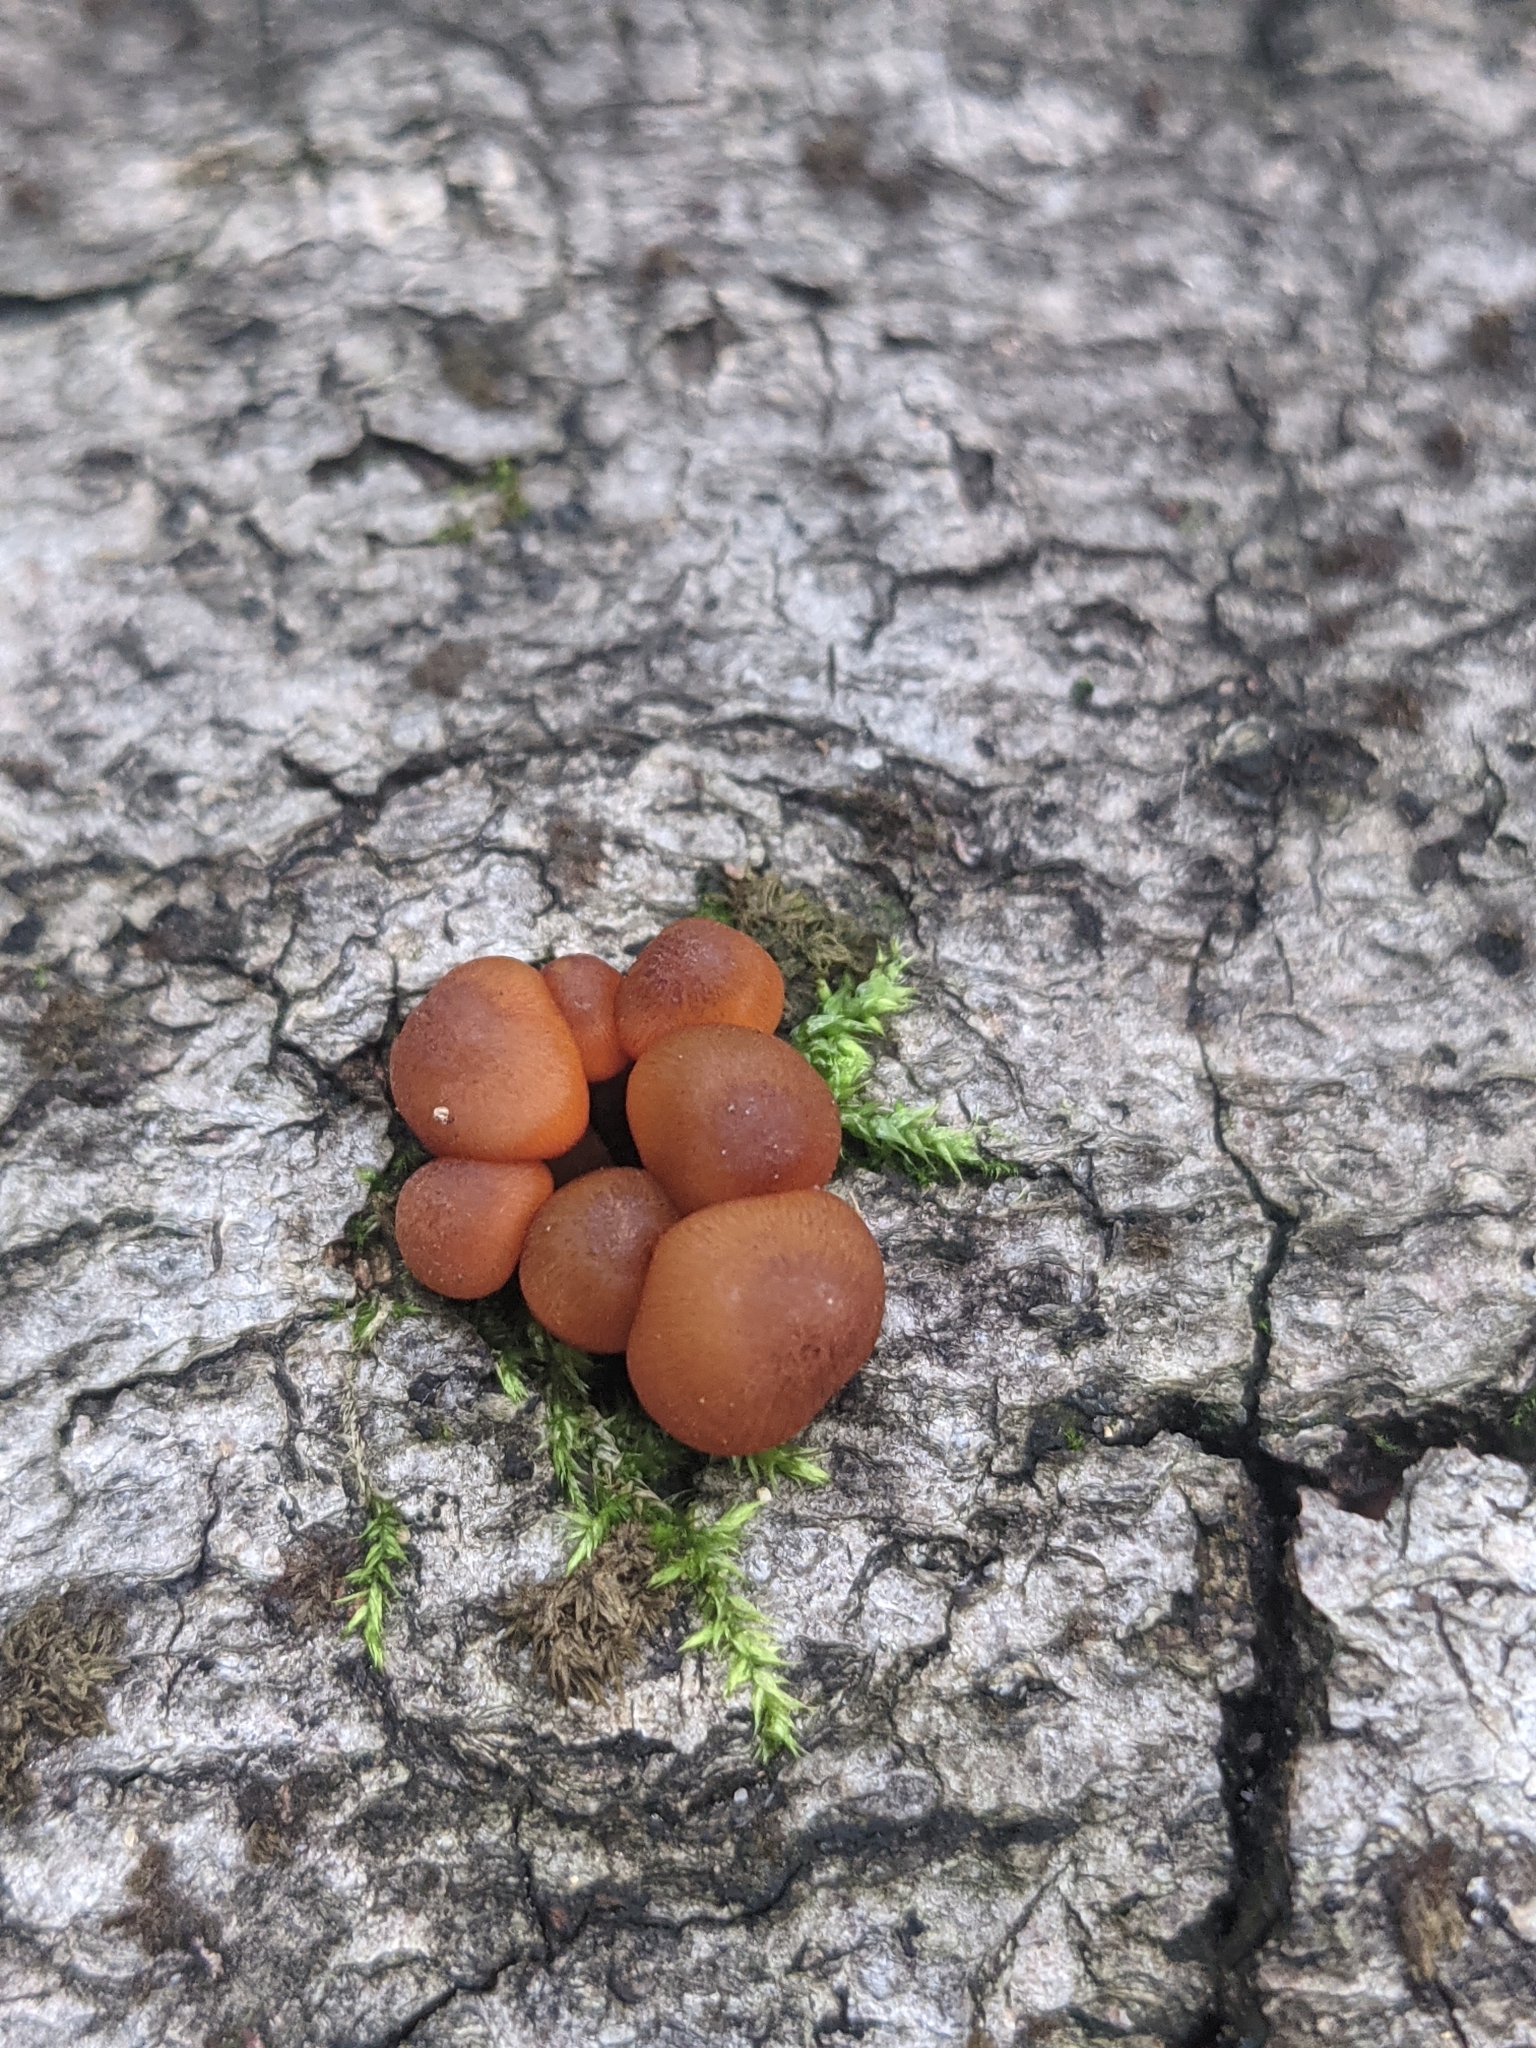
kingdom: Fungi
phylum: Basidiomycota
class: Agaricomycetes
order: Agaricales
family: Mycenaceae
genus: Mycena
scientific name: Mycena leaiana
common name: Orange mycena
